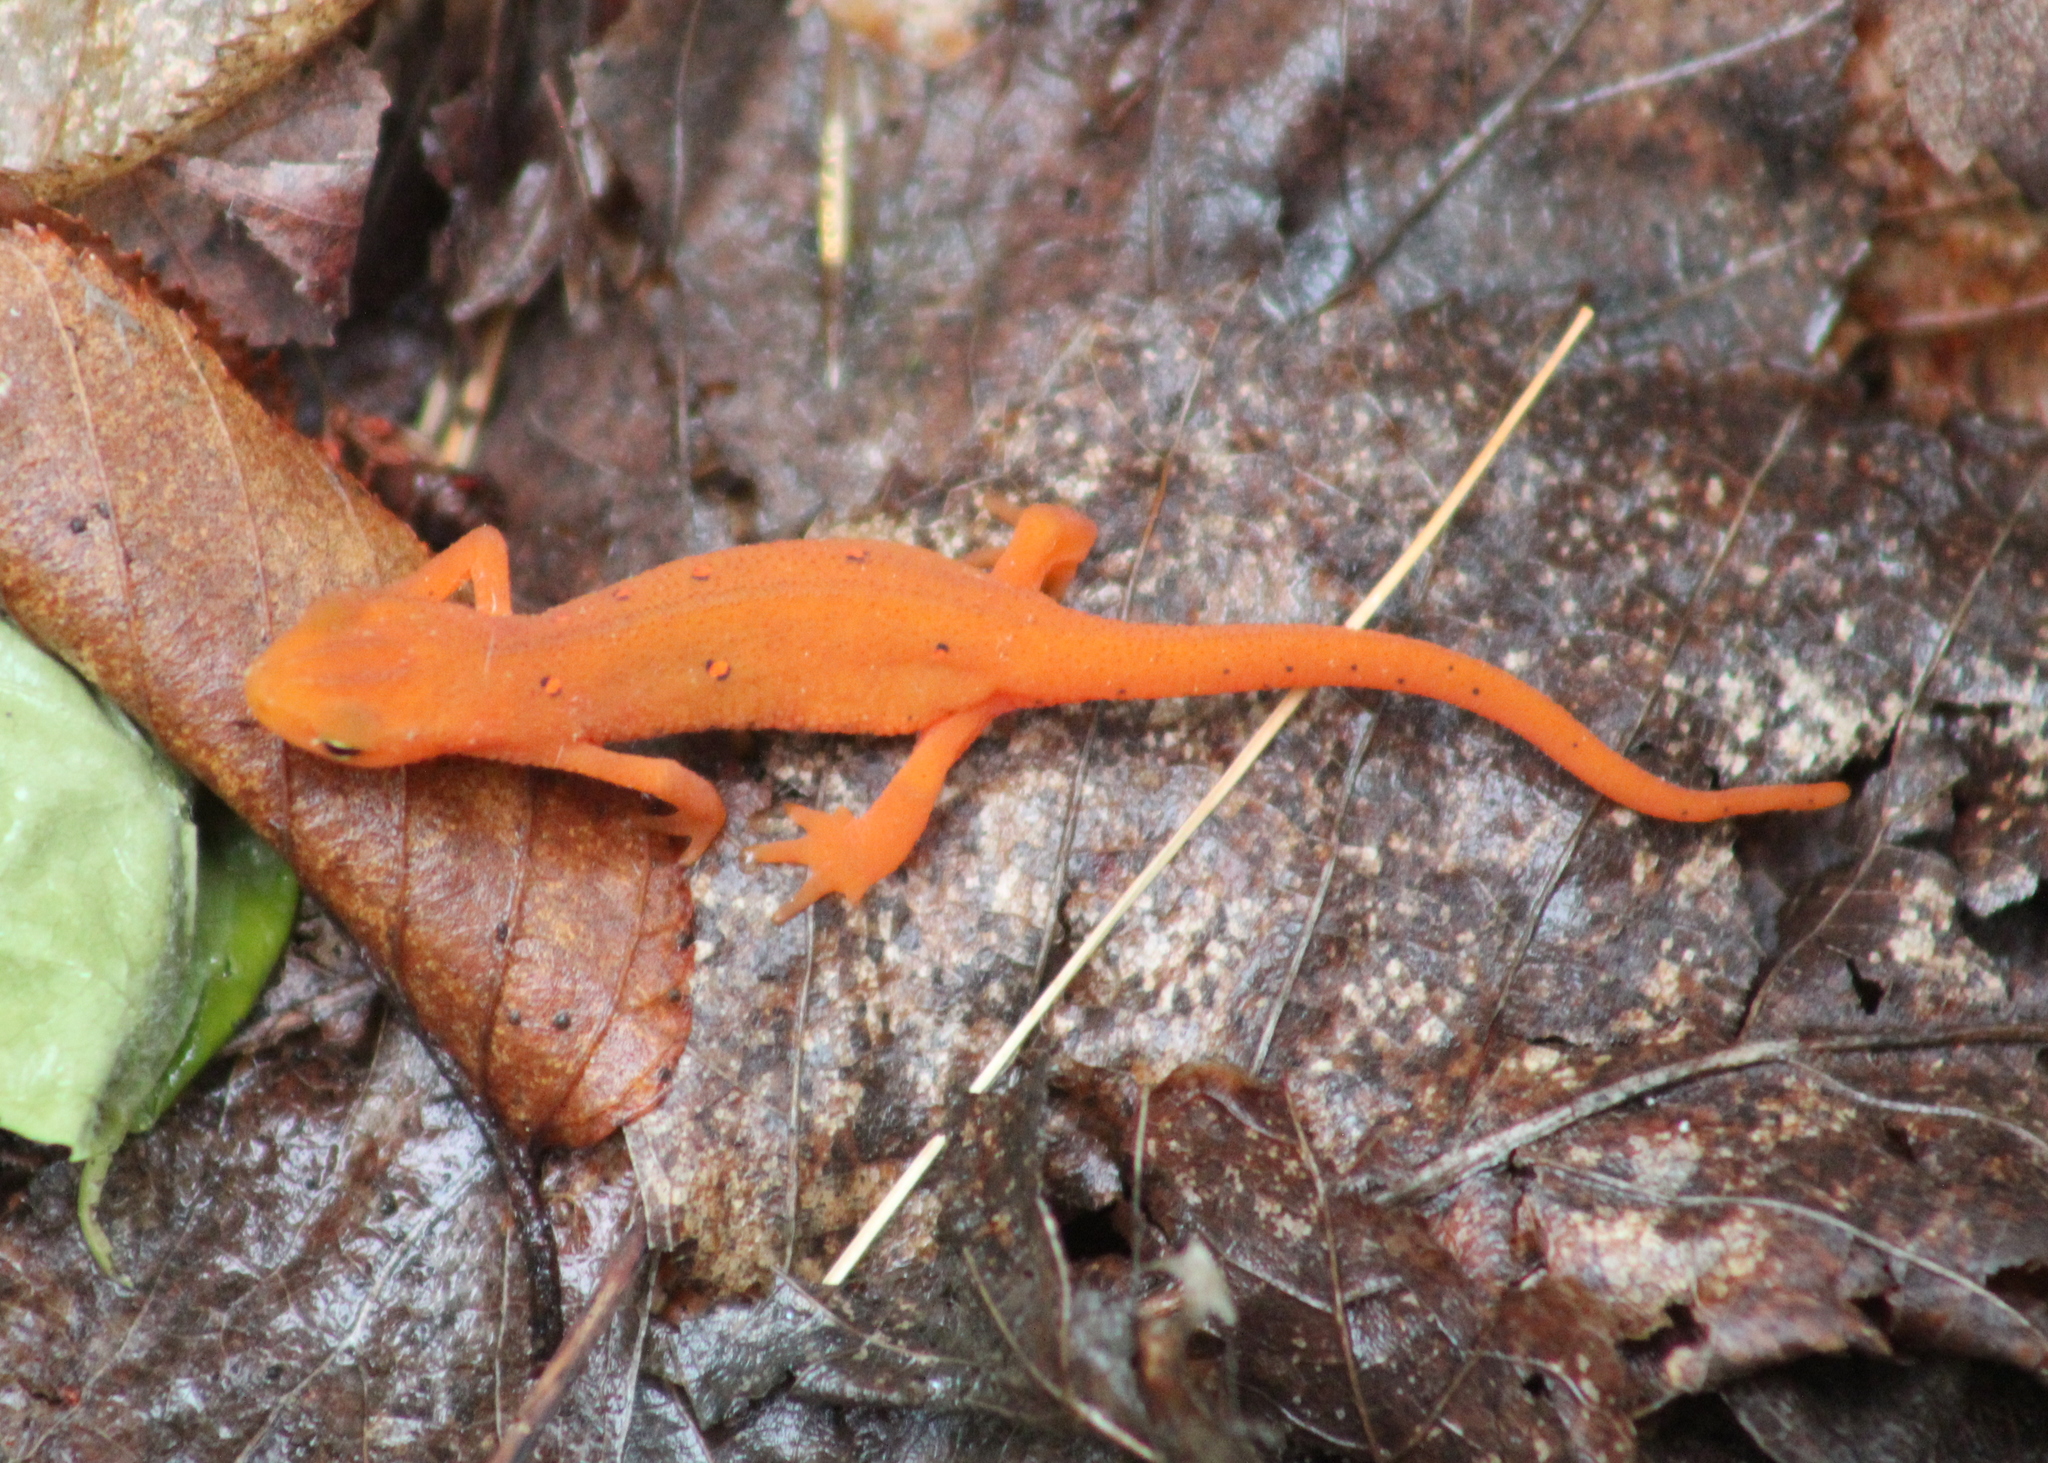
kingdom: Animalia
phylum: Chordata
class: Amphibia
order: Caudata
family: Salamandridae
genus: Notophthalmus
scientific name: Notophthalmus viridescens
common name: Eastern newt
